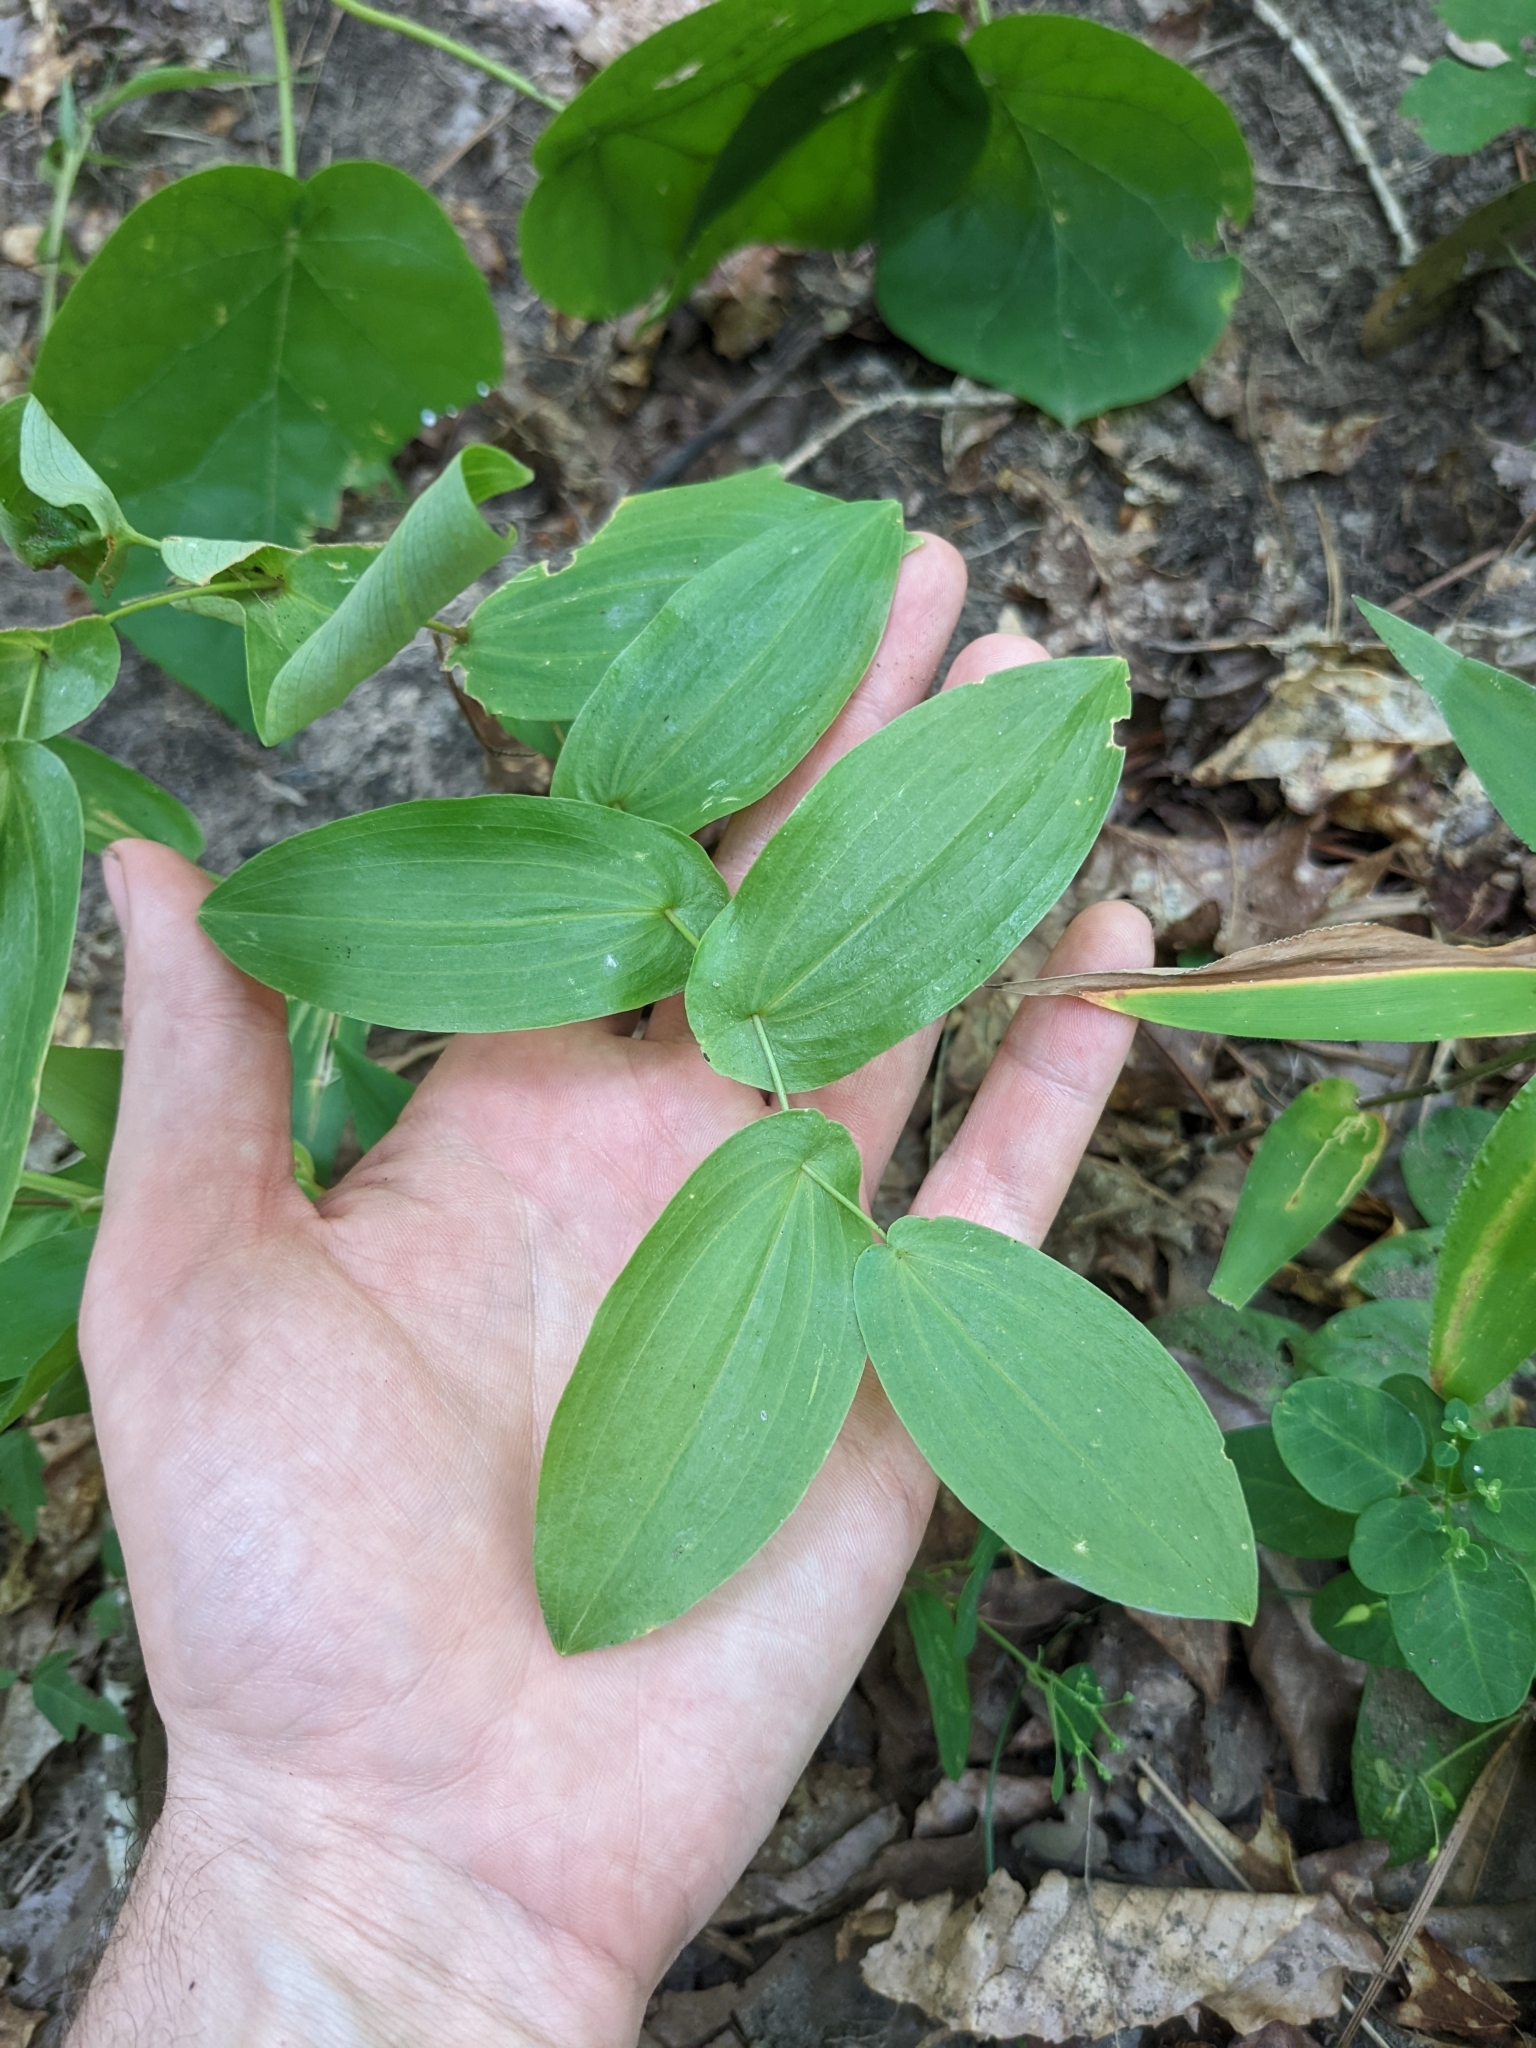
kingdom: Plantae
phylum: Tracheophyta
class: Liliopsida
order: Liliales
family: Colchicaceae
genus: Uvularia
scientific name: Uvularia perfoliata
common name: Perfoliate bellwort
